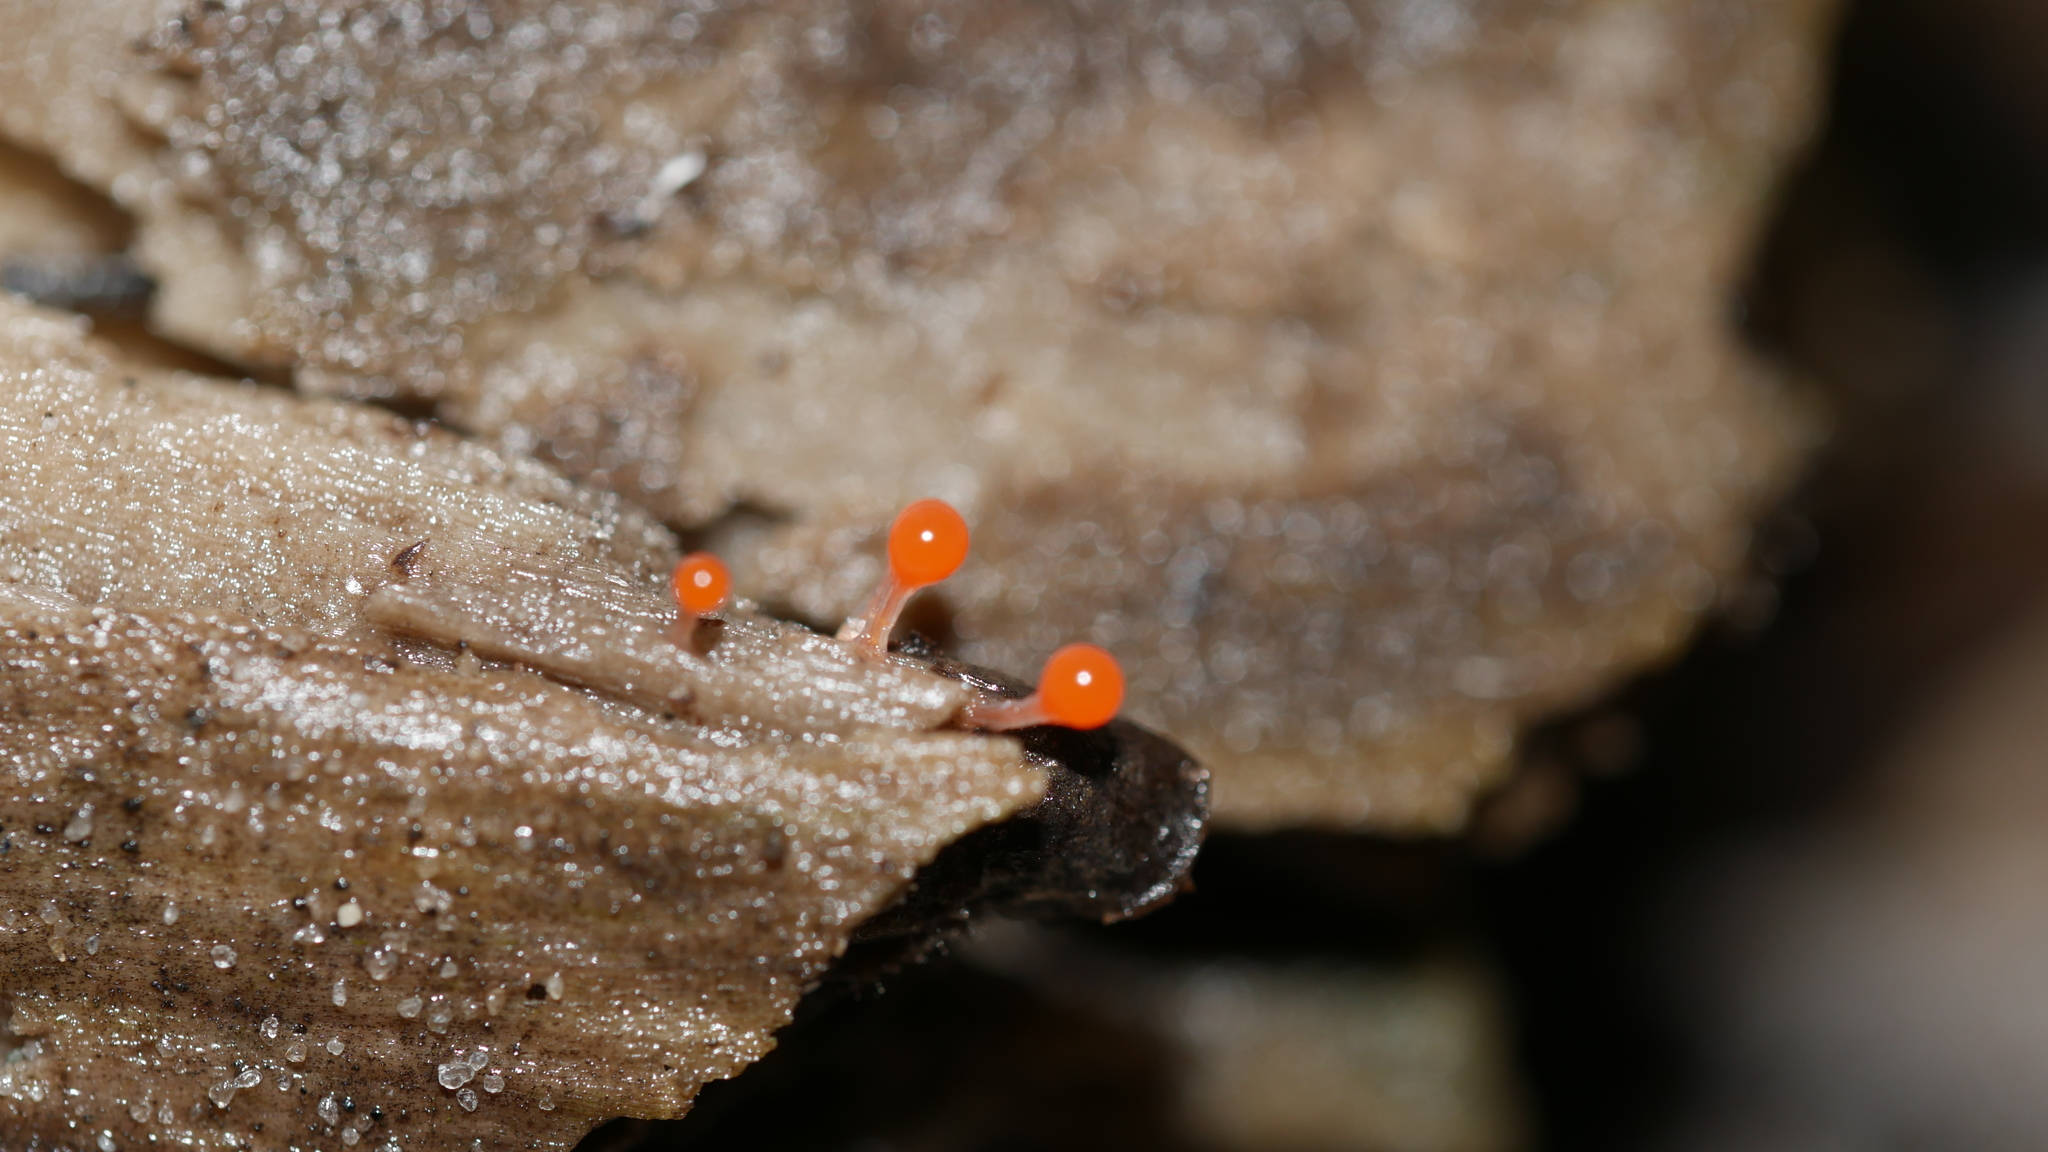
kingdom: Protozoa
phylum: Mycetozoa
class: Myxomycetes
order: Trichiales
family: Arcyriaceae
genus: Hemitrichia
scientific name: Hemitrichia decipiens
